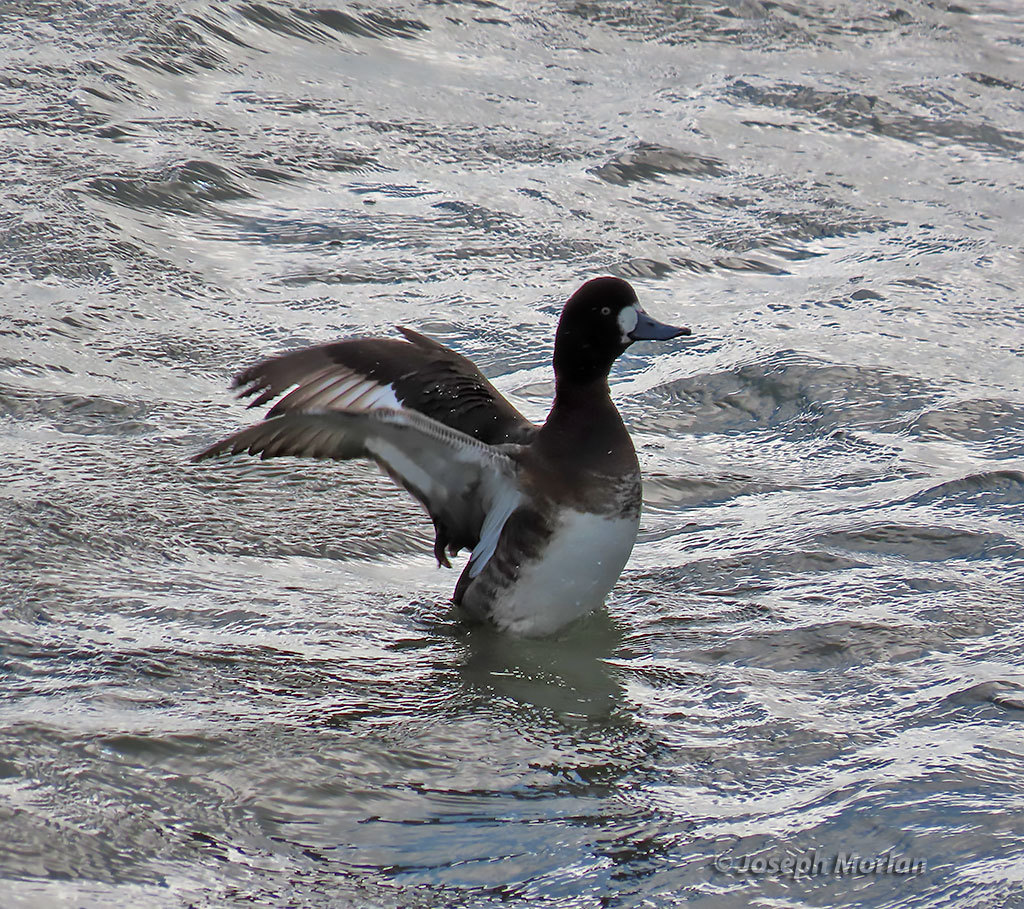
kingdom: Animalia
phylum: Chordata
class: Aves
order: Anseriformes
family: Anatidae
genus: Aythya
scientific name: Aythya marila
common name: Greater scaup
